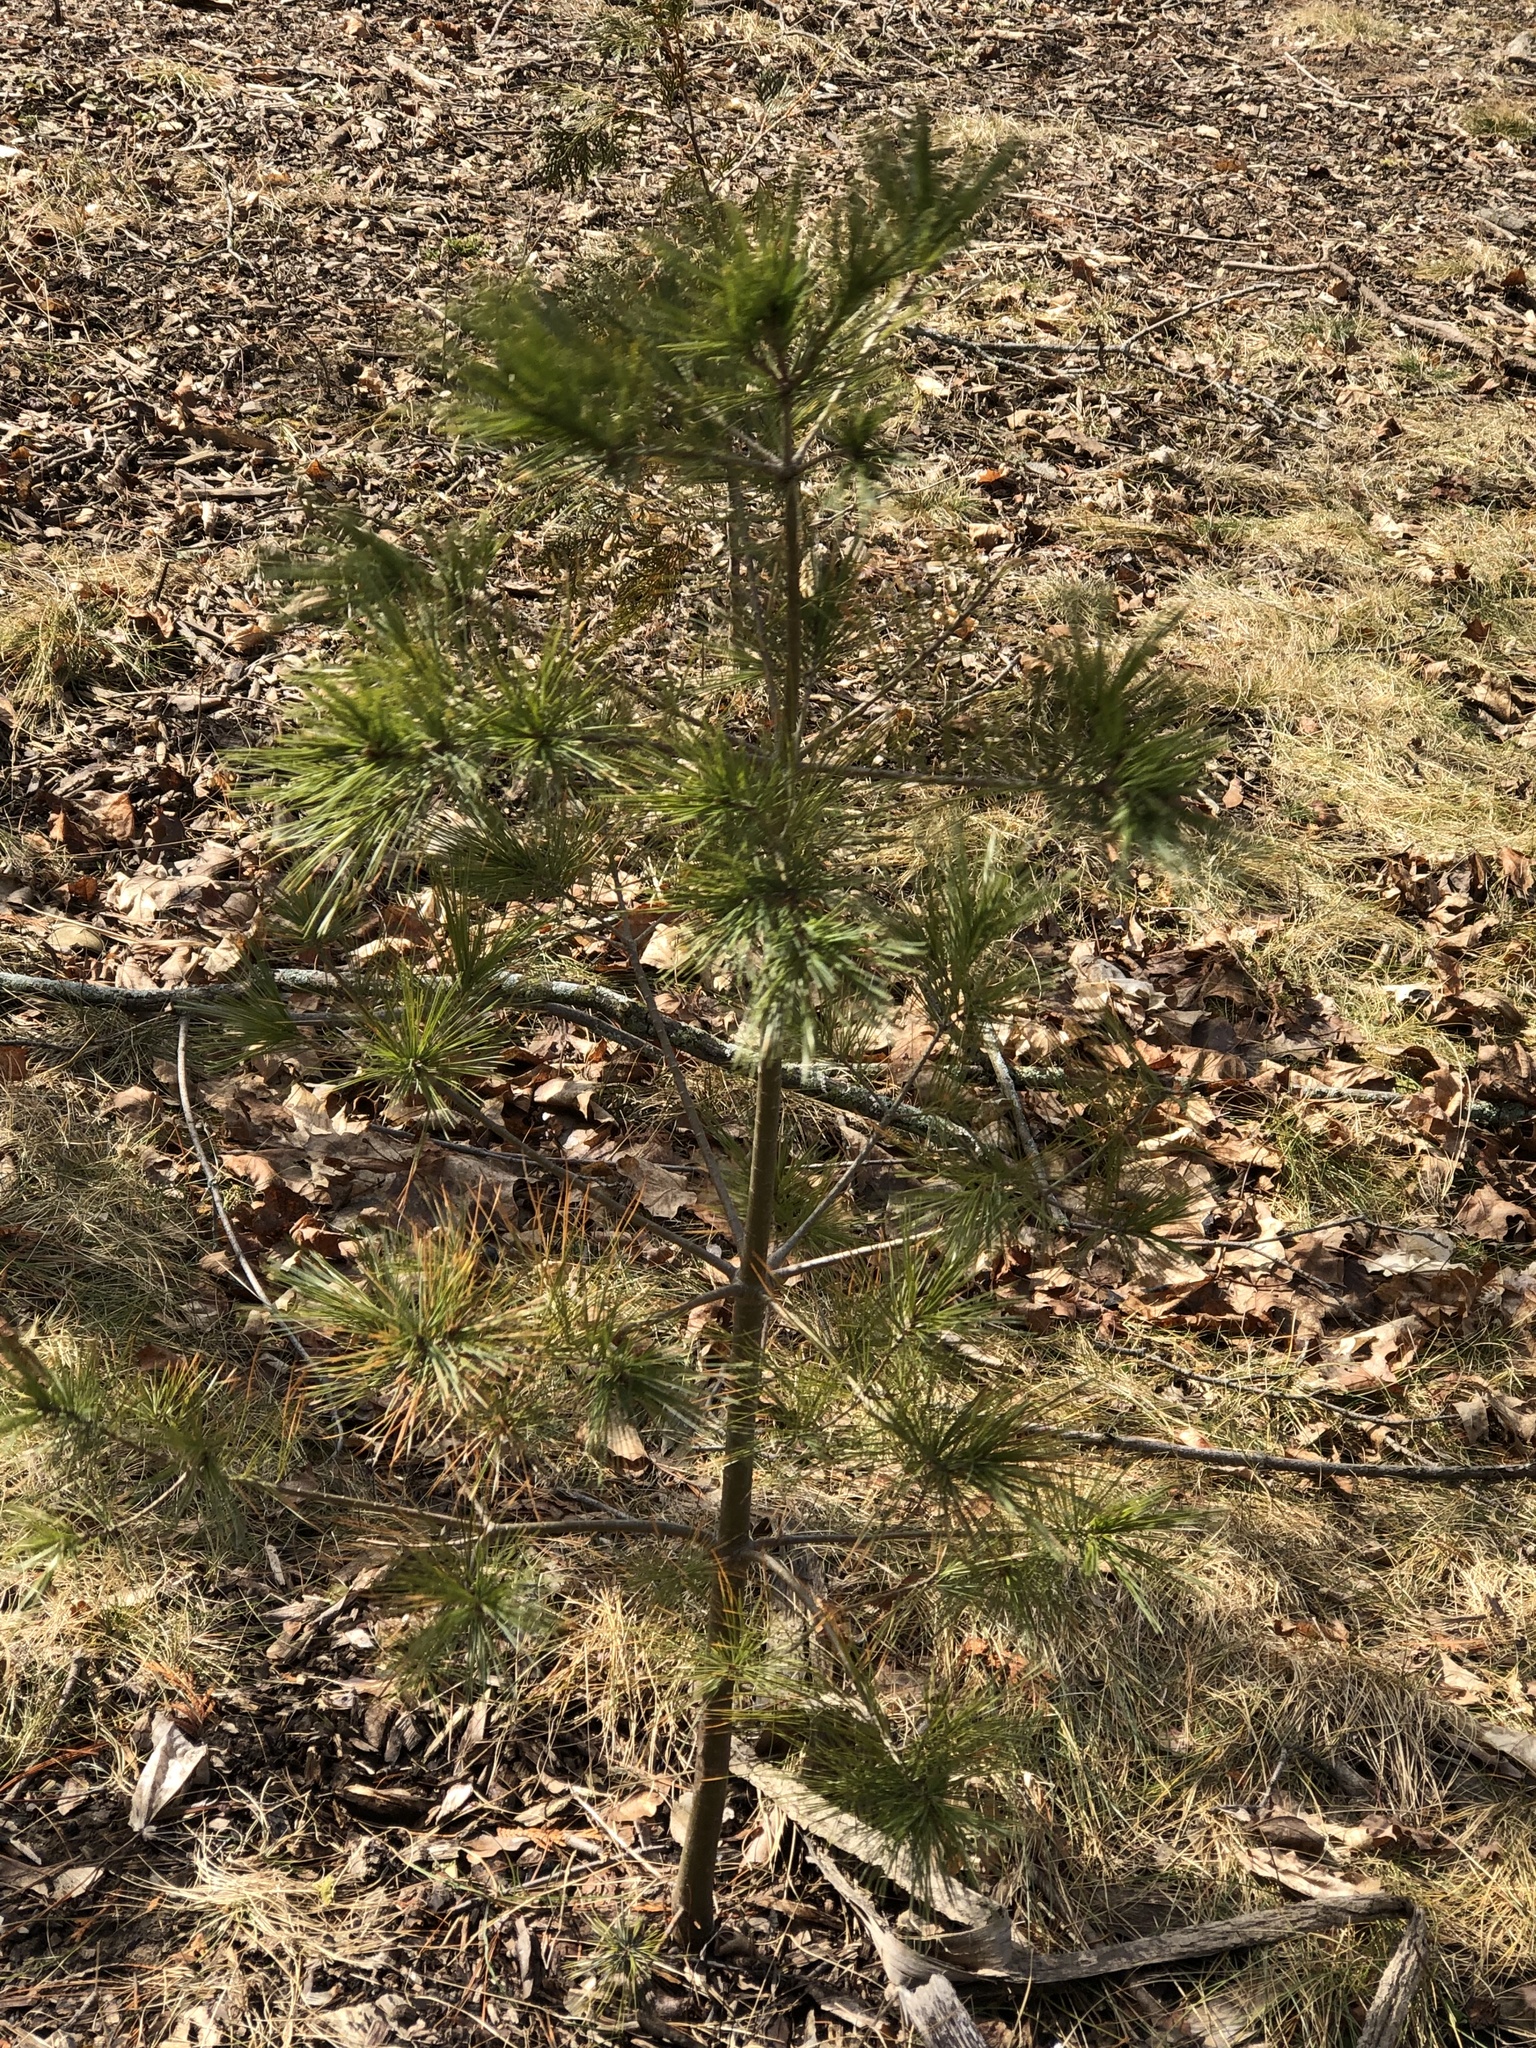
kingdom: Plantae
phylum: Tracheophyta
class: Pinopsida
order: Pinales
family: Pinaceae
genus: Pinus
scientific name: Pinus strobus
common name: Weymouth pine
